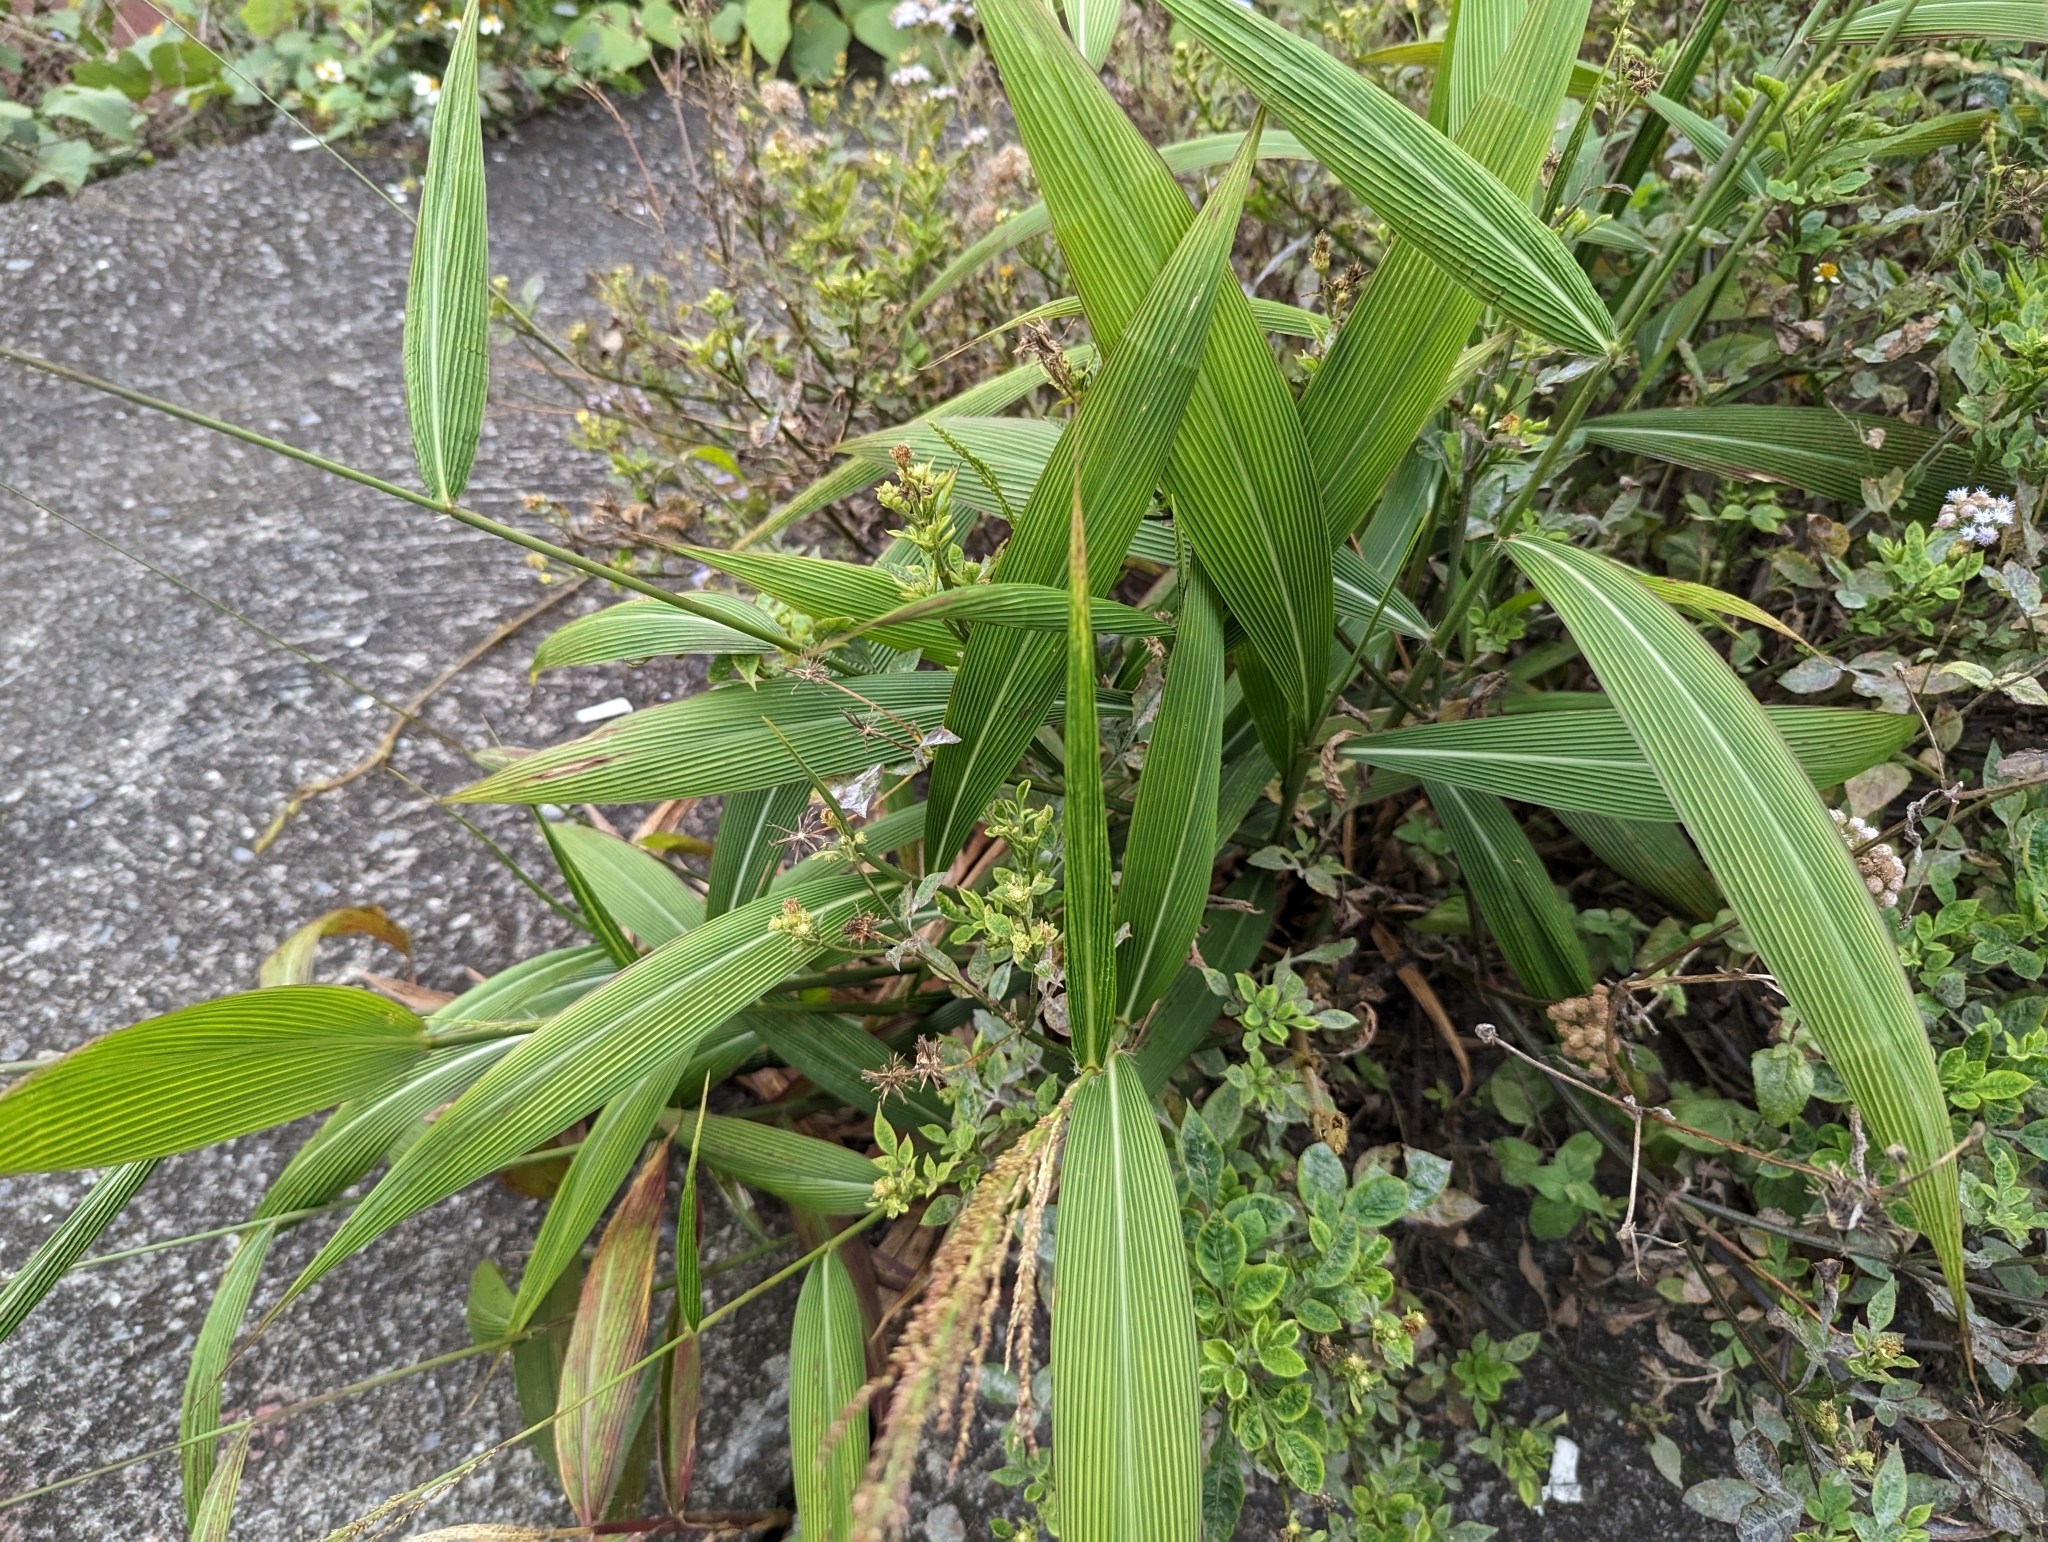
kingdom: Plantae
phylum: Tracheophyta
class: Liliopsida
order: Poales
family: Poaceae
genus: Setaria
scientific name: Setaria palmifolia
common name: Broadleaved bristlegrass
